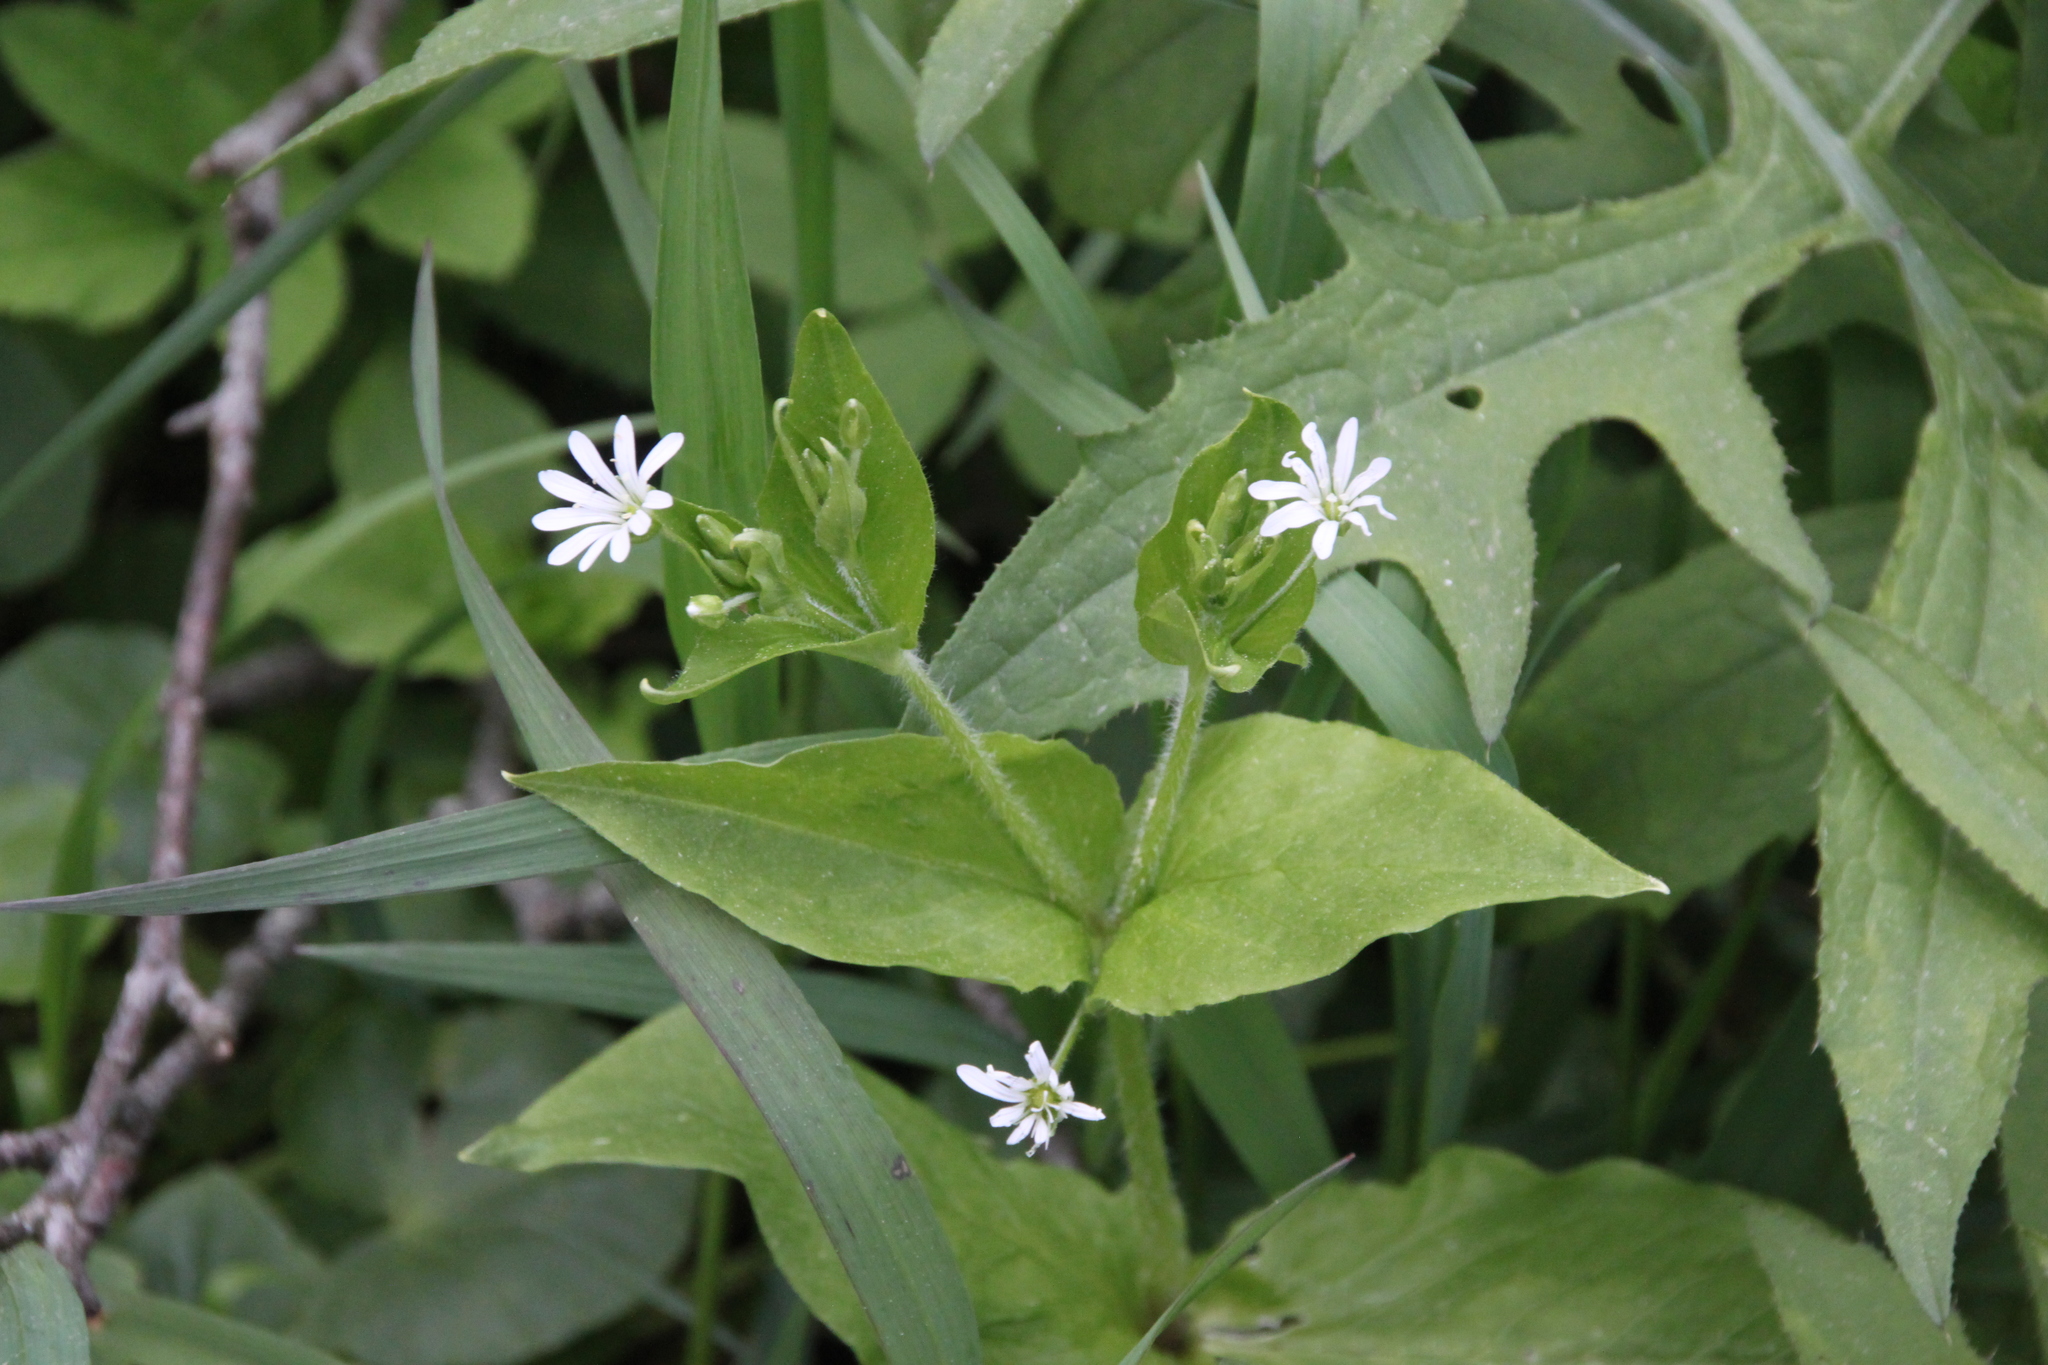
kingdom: Plantae
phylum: Tracheophyta
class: Magnoliopsida
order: Caryophyllales
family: Caryophyllaceae
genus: Stellaria
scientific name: Stellaria nemorum
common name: Wood stitchwort
